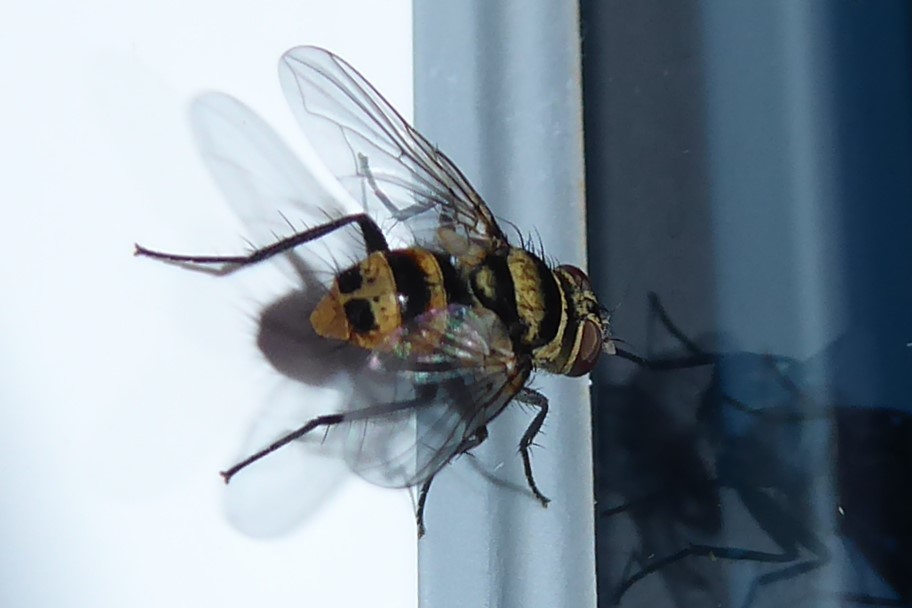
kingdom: Animalia
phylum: Arthropoda
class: Insecta
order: Diptera
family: Tachinidae
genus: Trigonospila
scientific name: Trigonospila brevifacies
